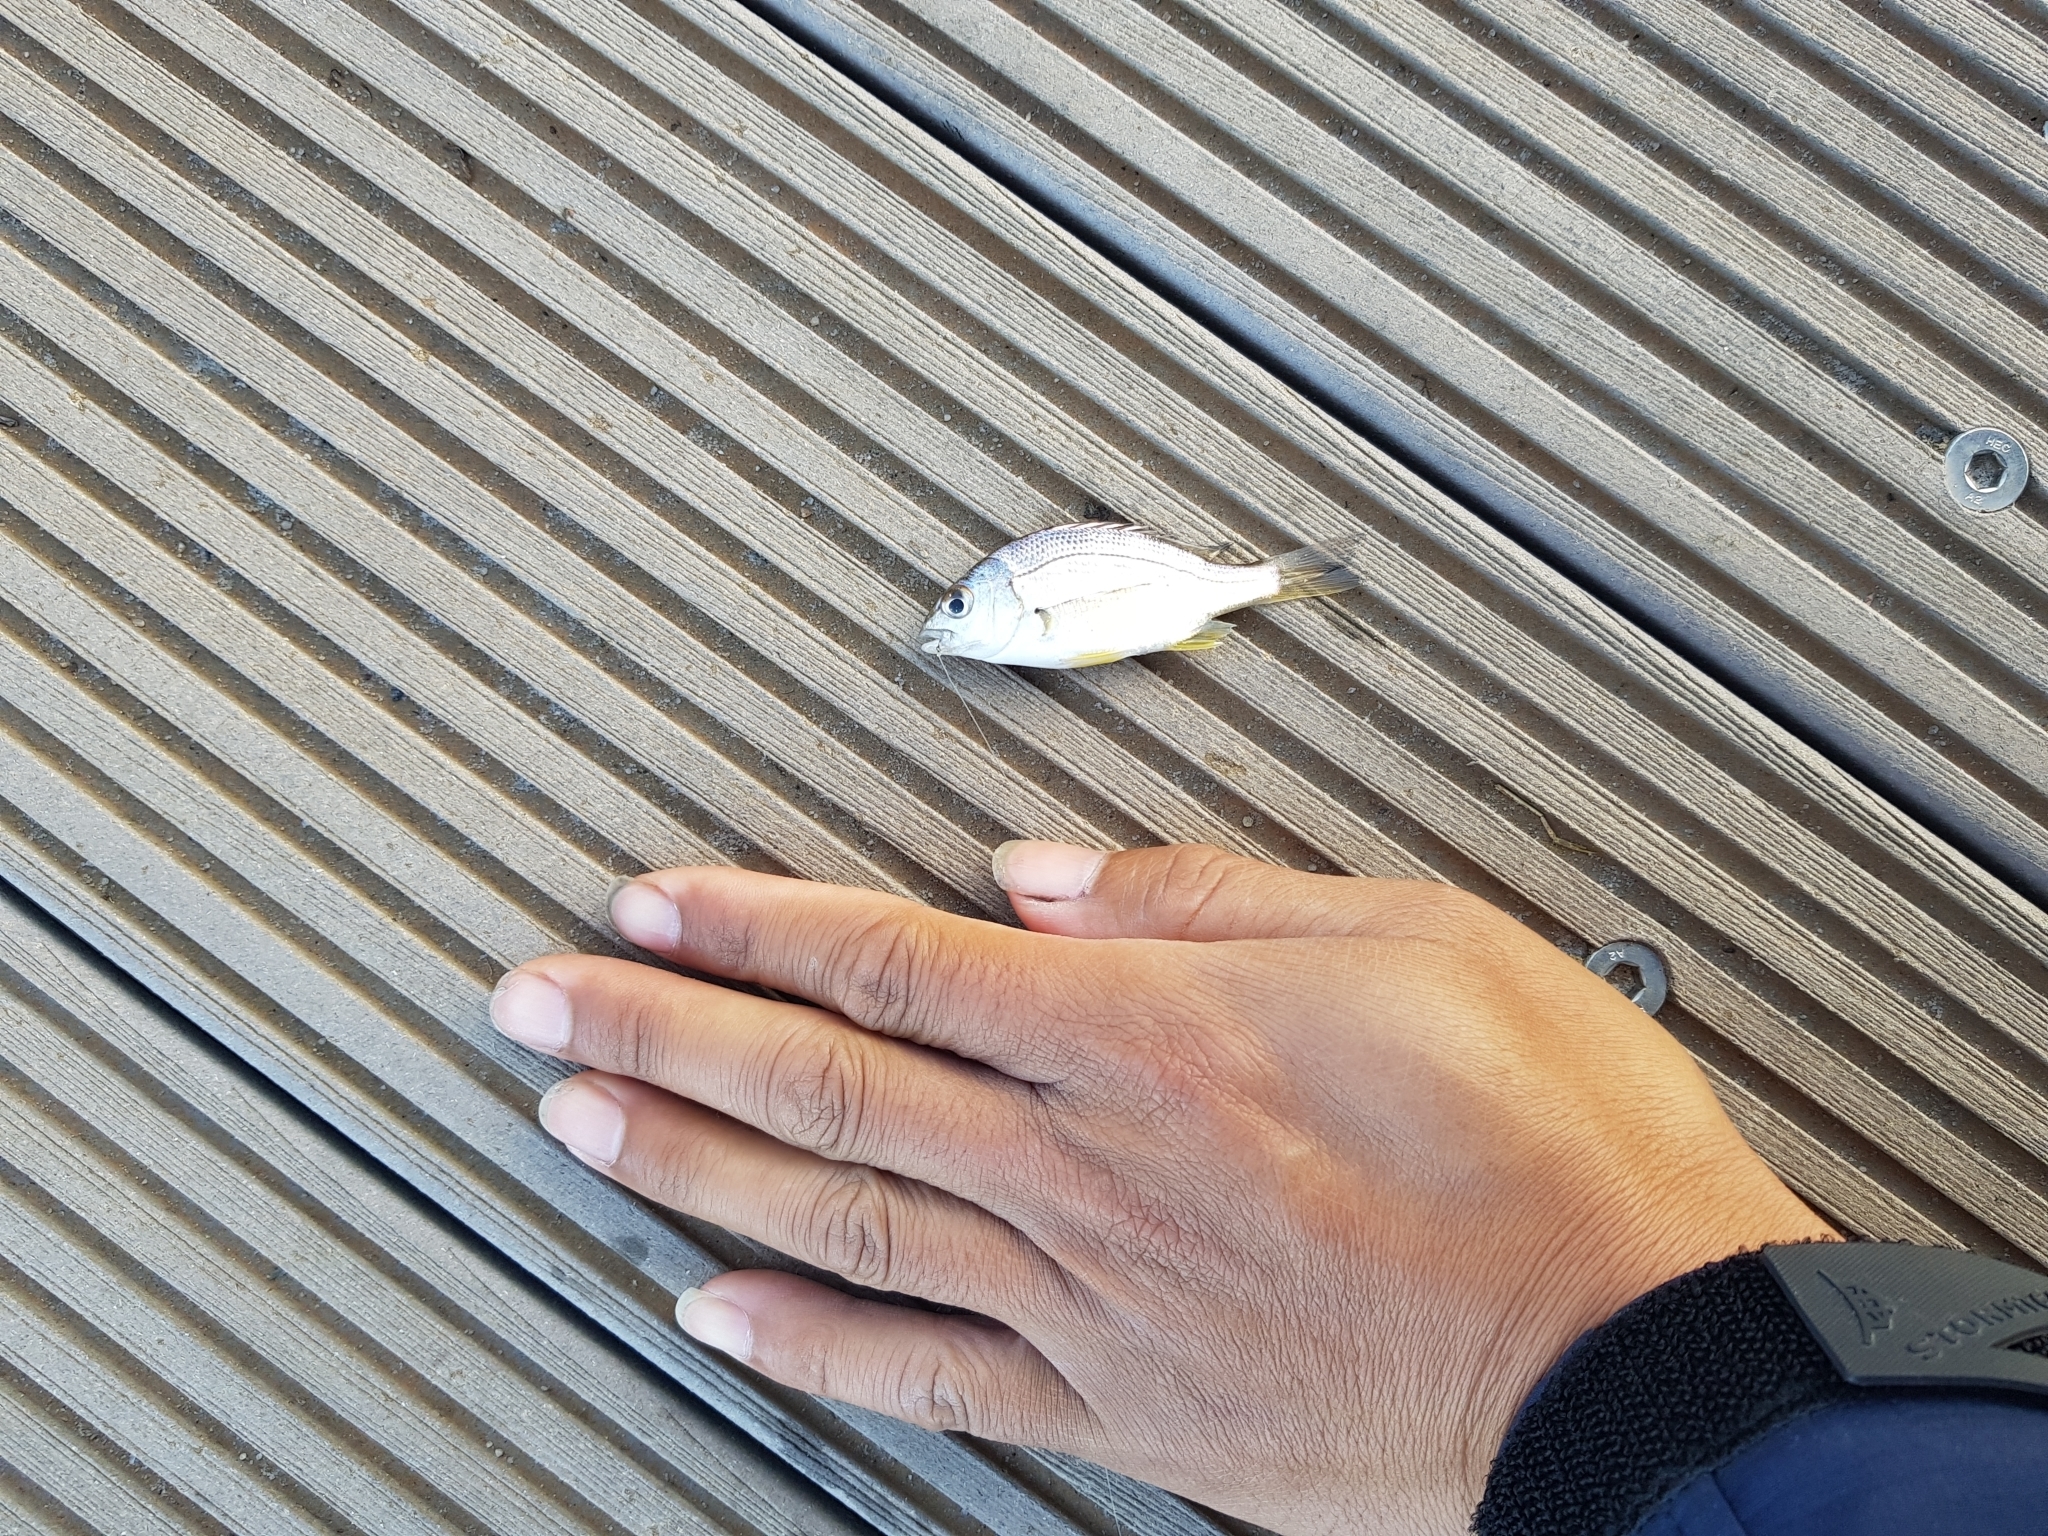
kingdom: Animalia
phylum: Chordata
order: Perciformes
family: Sparidae
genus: Acanthopagrus
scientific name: Acanthopagrus butcheri
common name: Black bream
